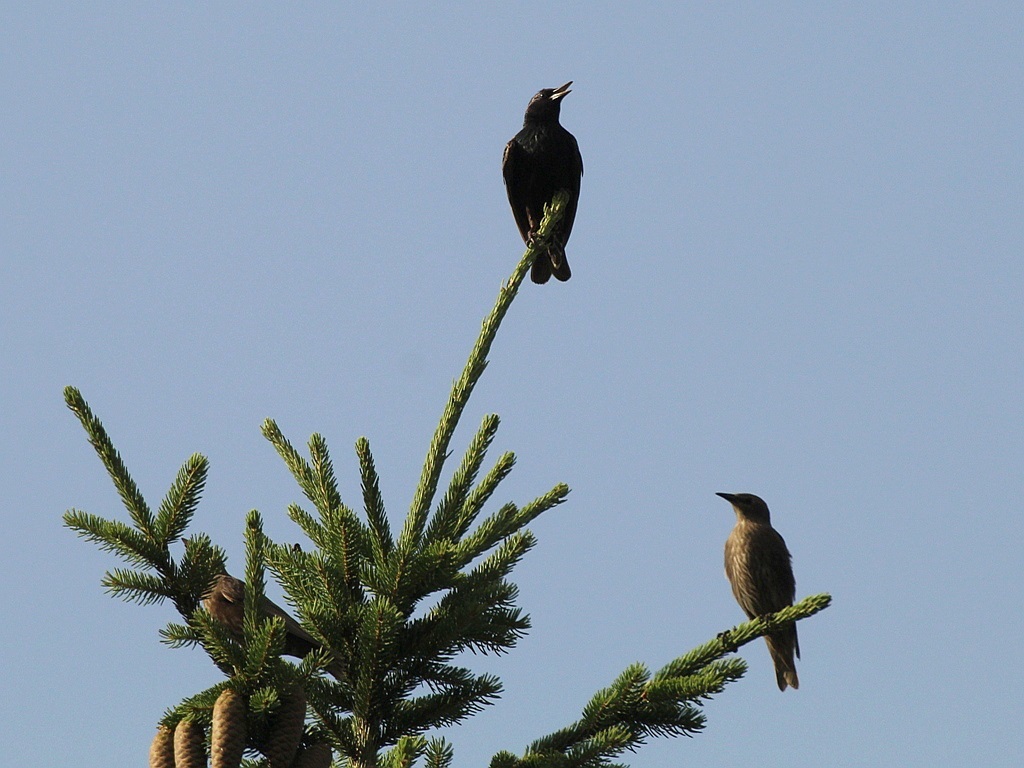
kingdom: Animalia
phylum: Chordata
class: Aves
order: Passeriformes
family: Sturnidae
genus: Sturnus
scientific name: Sturnus vulgaris
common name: Common starling
